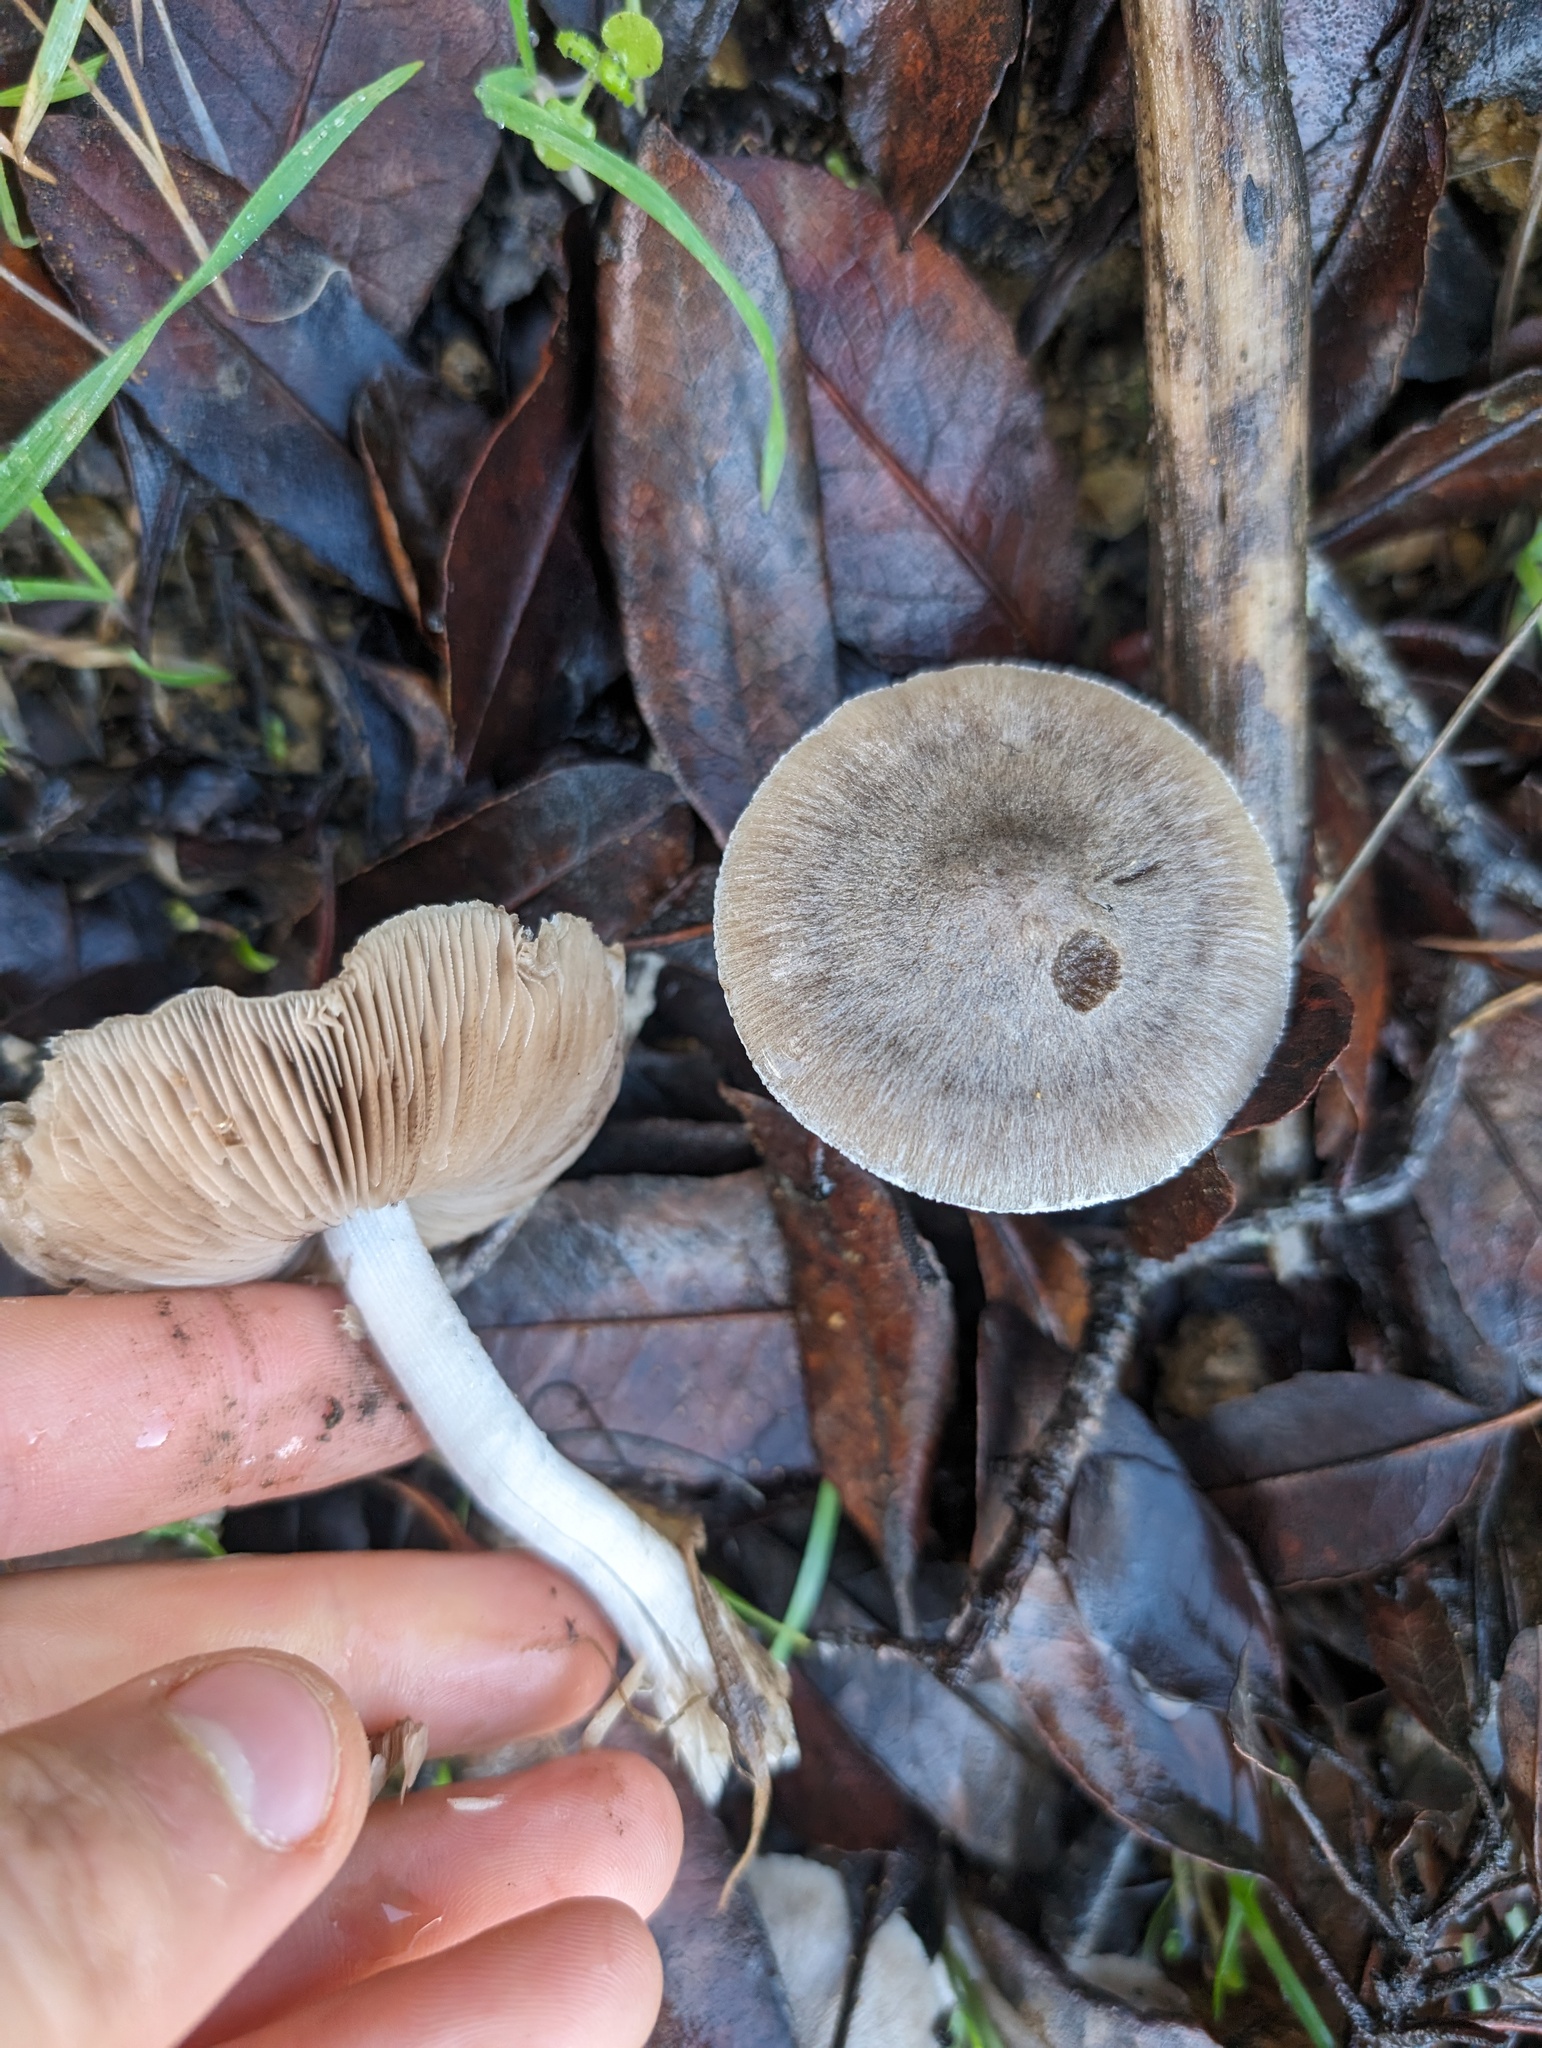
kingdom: Fungi
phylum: Basidiomycota
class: Agaricomycetes
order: Agaricales
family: Psathyrellaceae
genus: Psathyrella
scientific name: Psathyrella uliginicola
